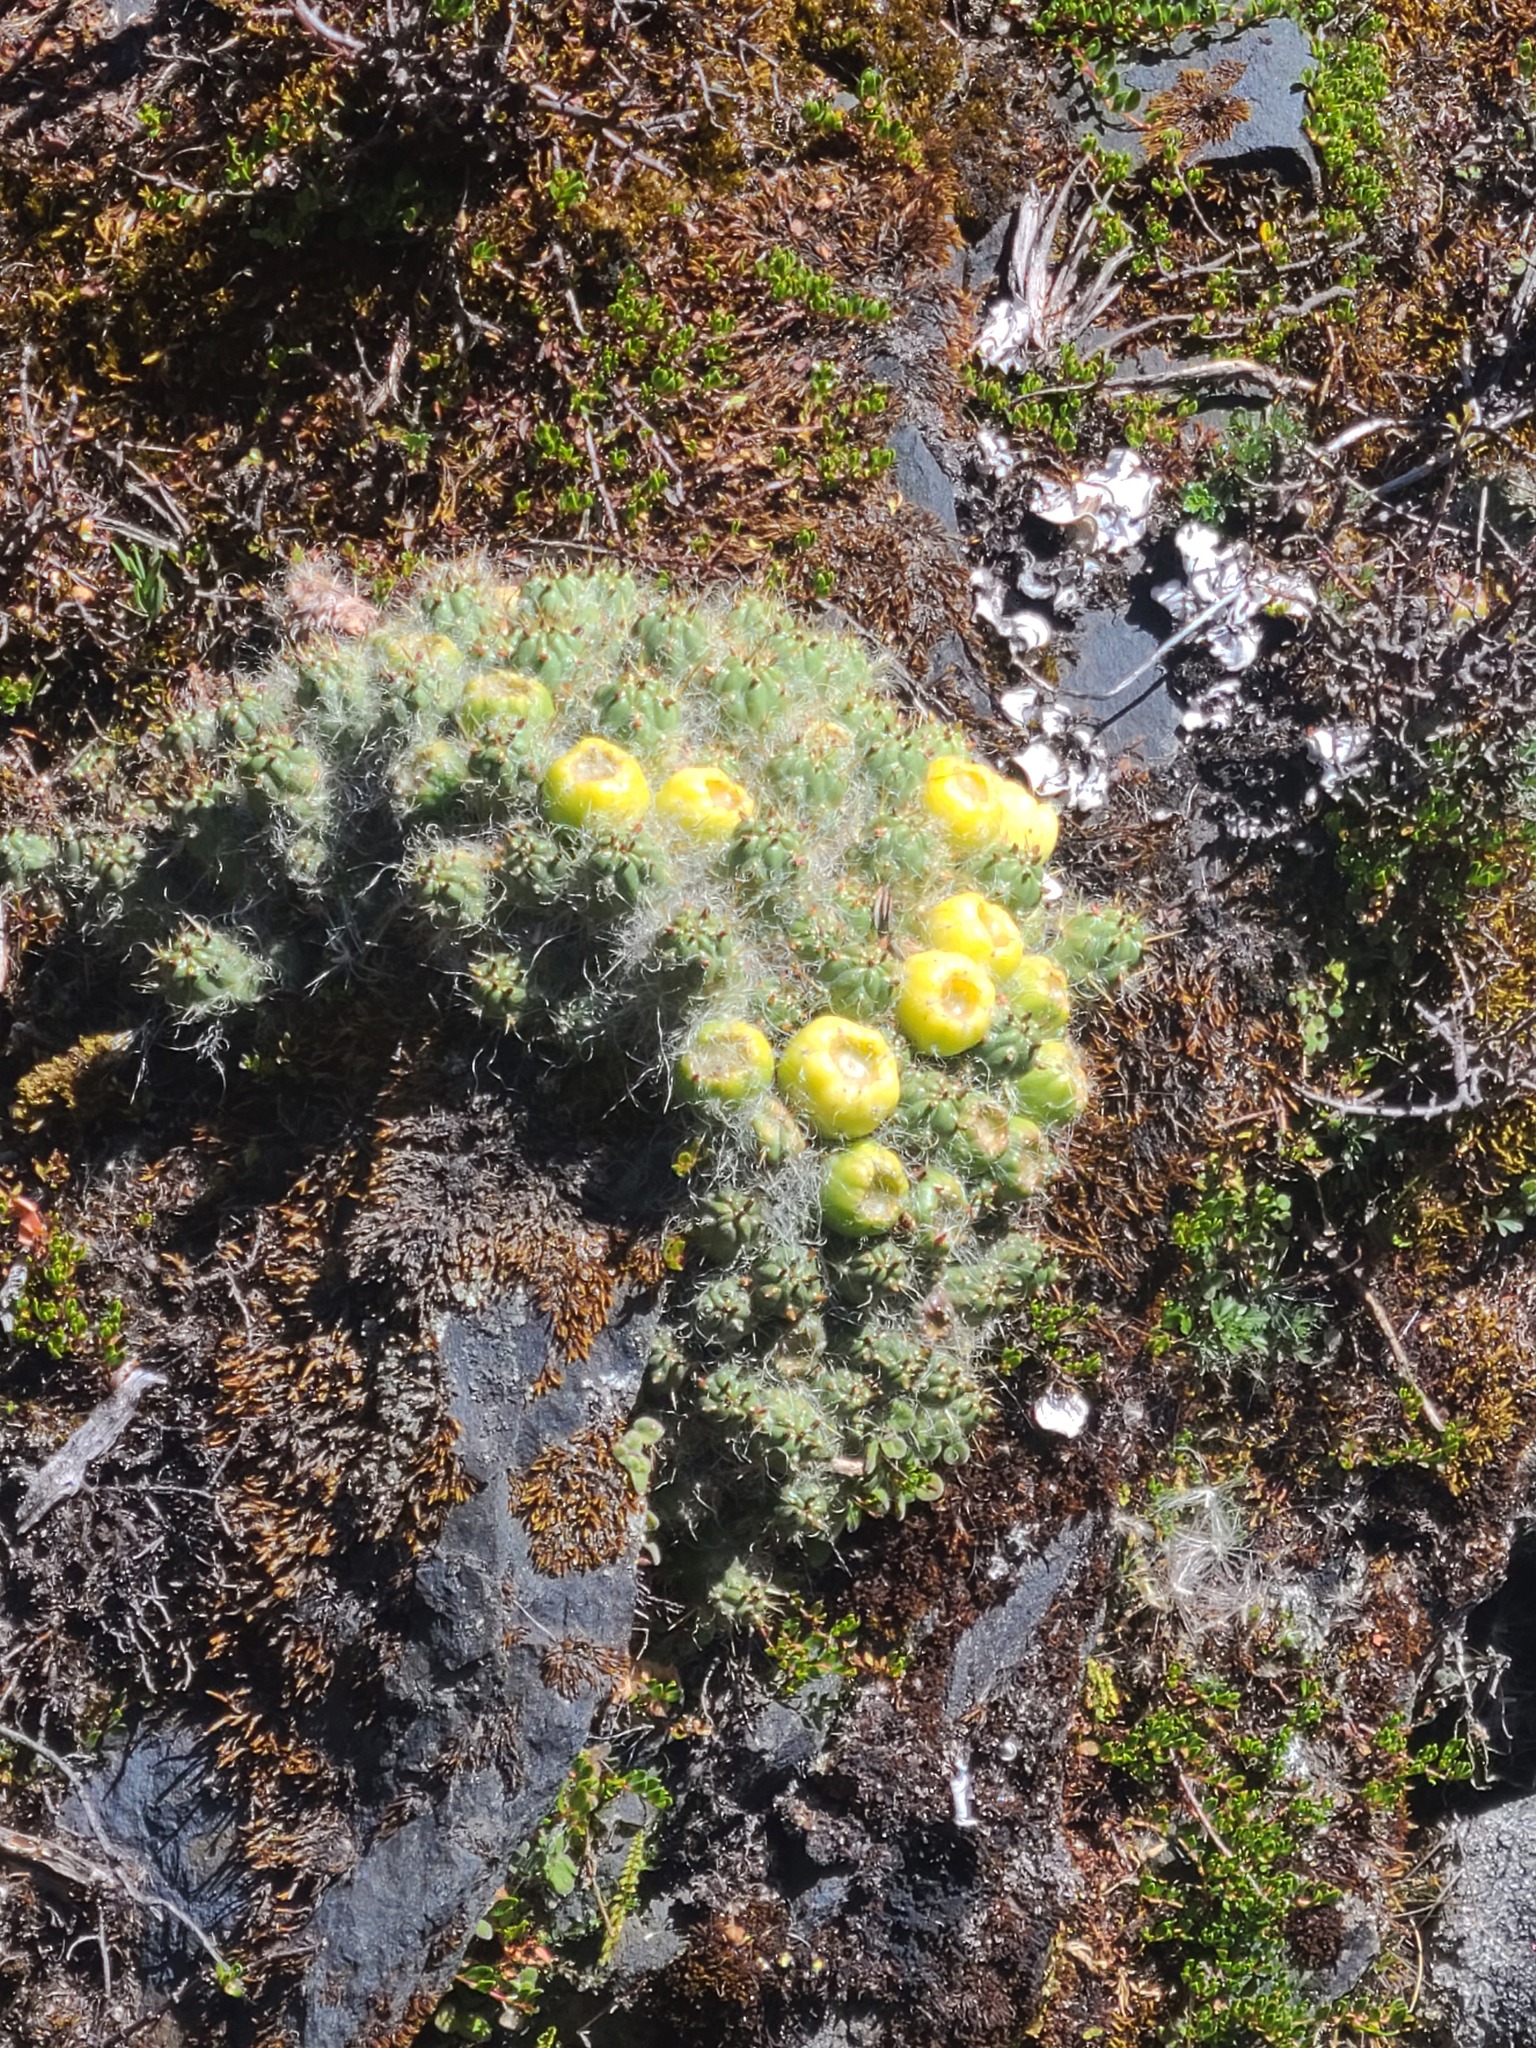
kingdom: Plantae
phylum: Tracheophyta
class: Magnoliopsida
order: Caryophyllales
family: Cactaceae
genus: Austrocylindropuntia
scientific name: Austrocylindropuntia floccosa
